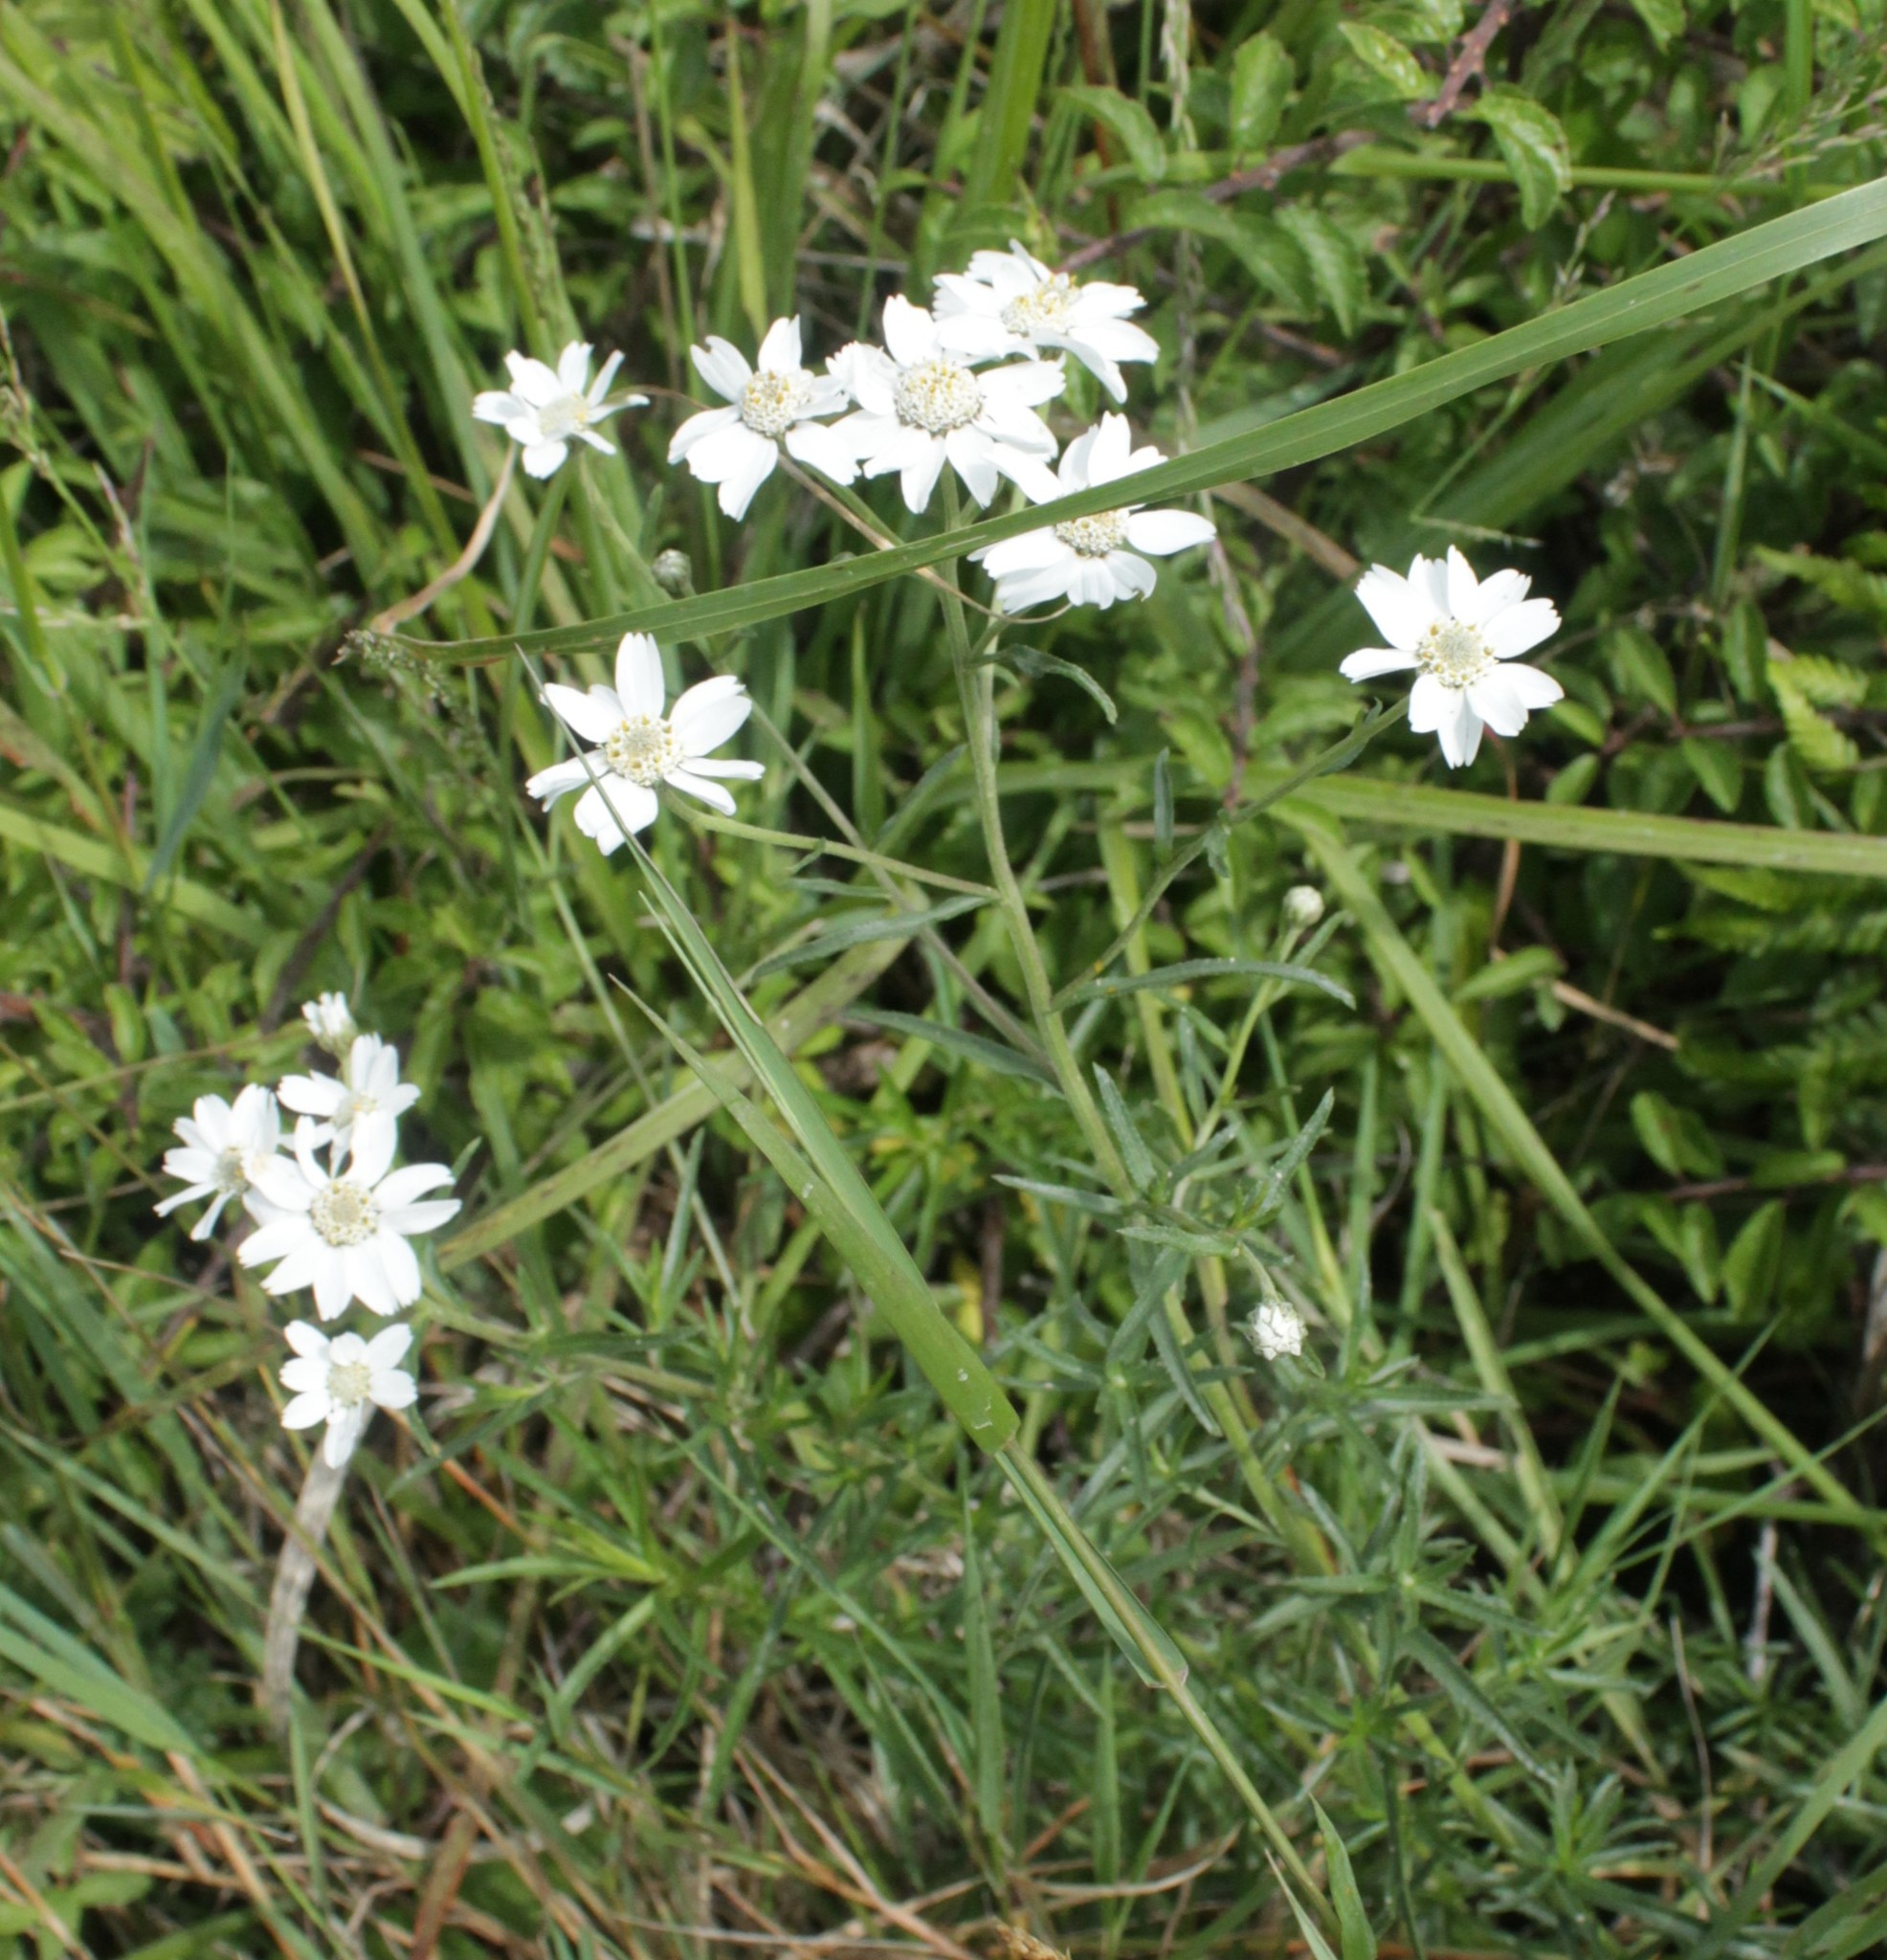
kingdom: Plantae
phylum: Tracheophyta
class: Magnoliopsida
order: Asterales
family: Asteraceae
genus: Achillea
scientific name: Achillea ptarmica
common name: Sneezeweed
